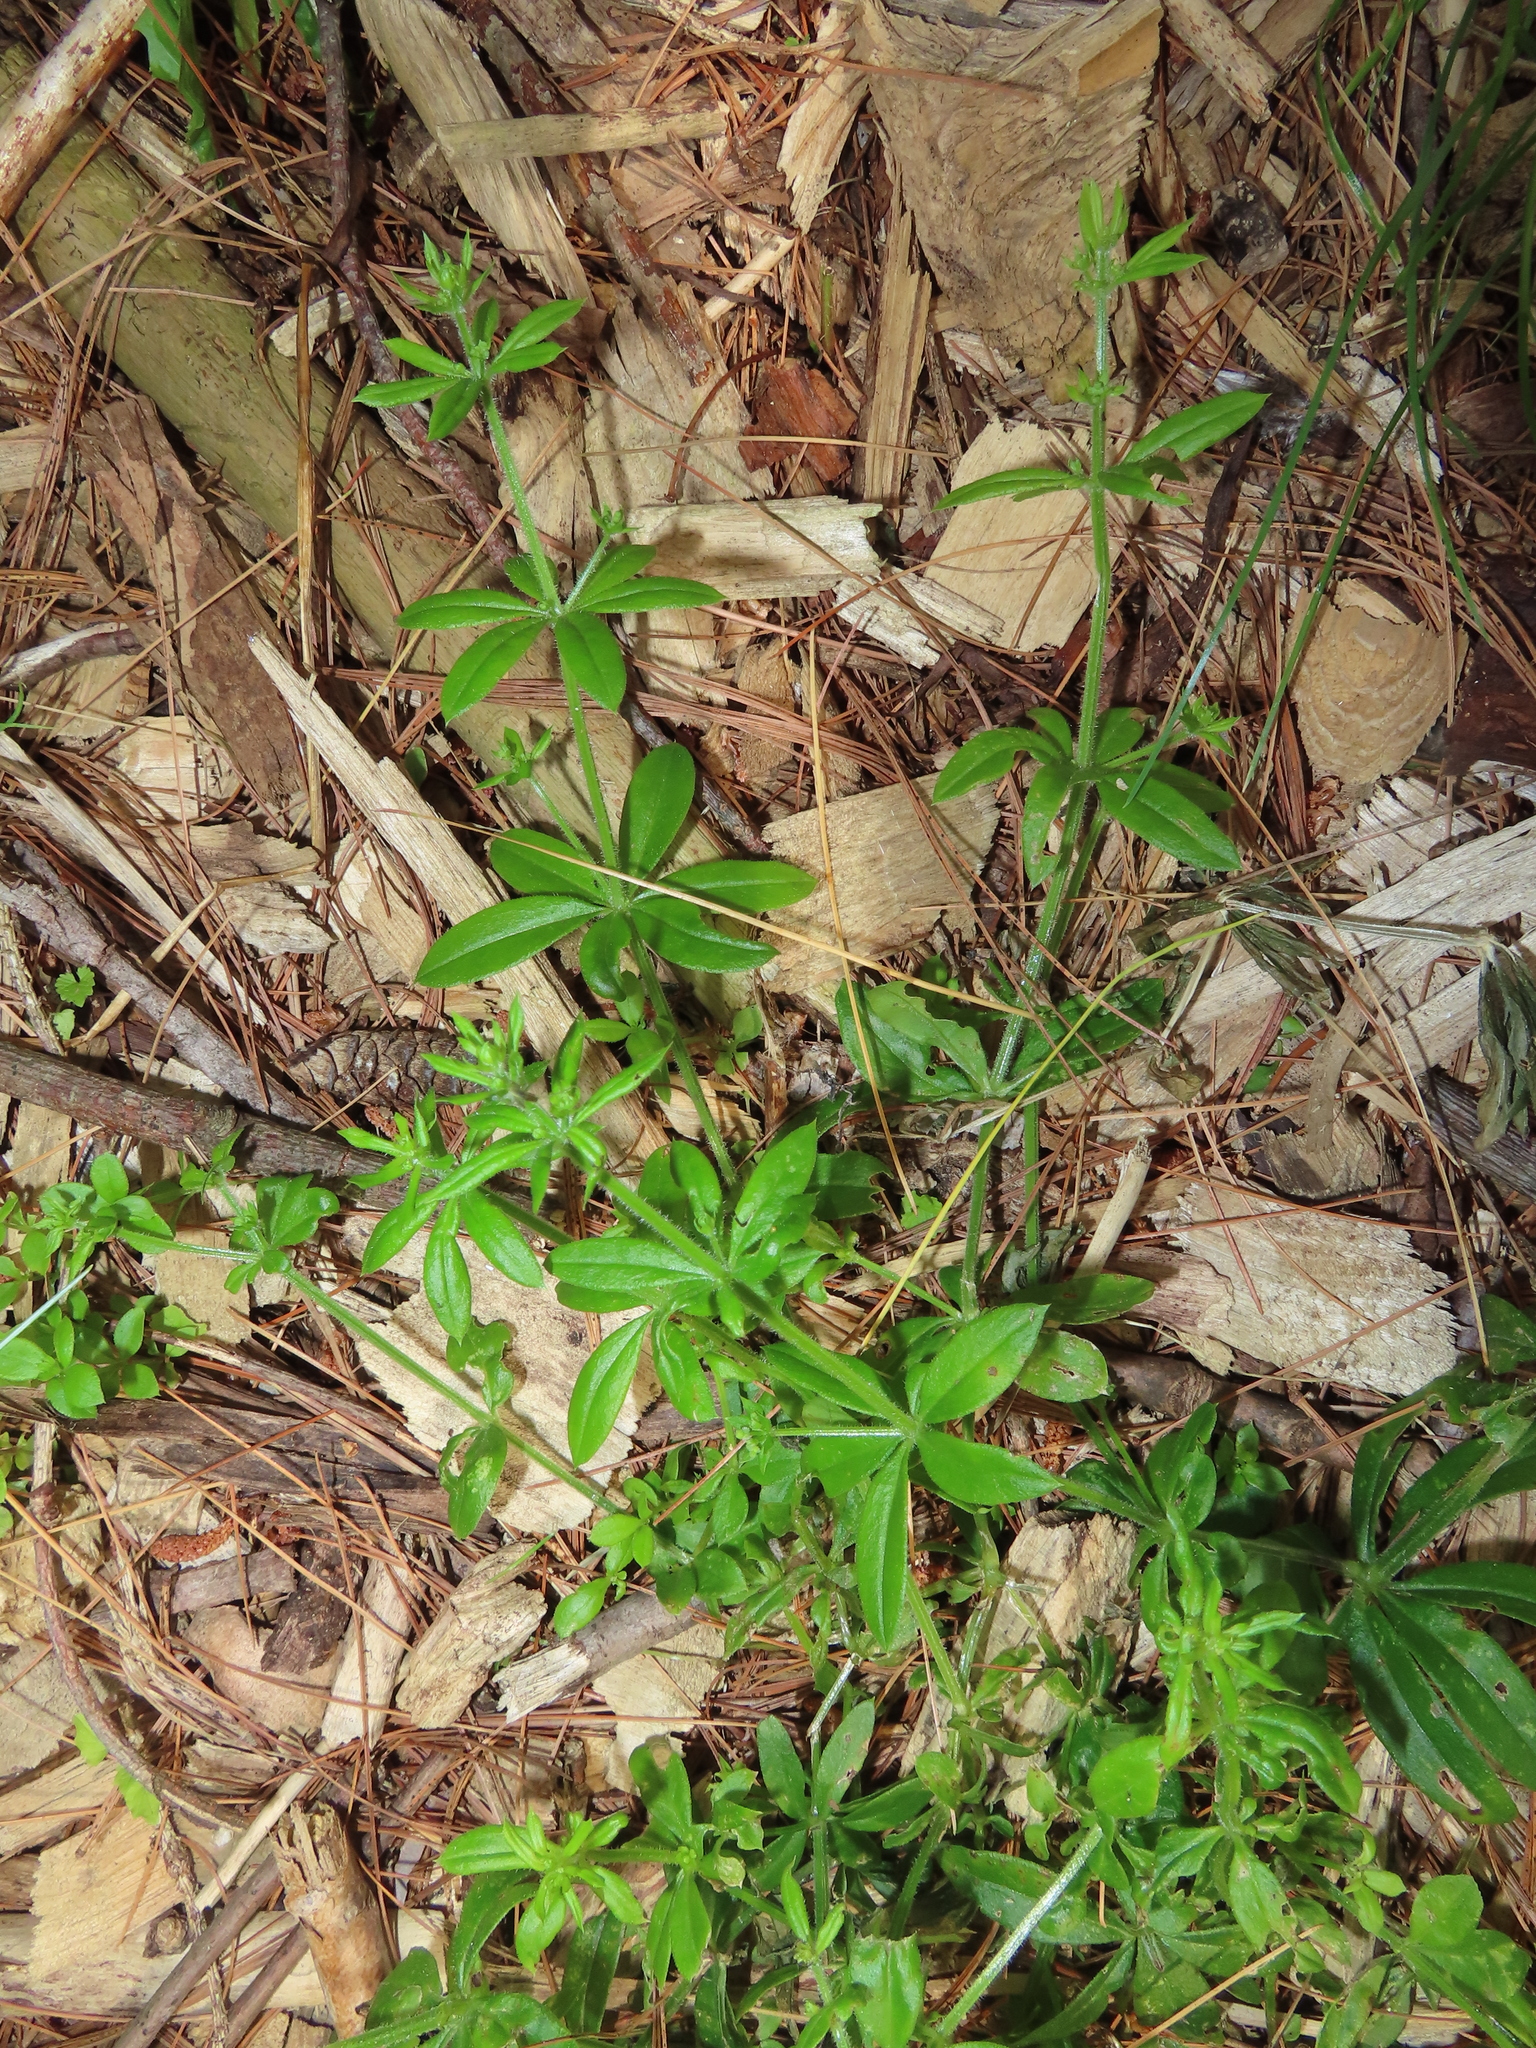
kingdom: Plantae
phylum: Tracheophyta
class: Magnoliopsida
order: Gentianales
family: Rubiaceae
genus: Galium
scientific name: Galium triflorum
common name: Fragrant bedstraw
